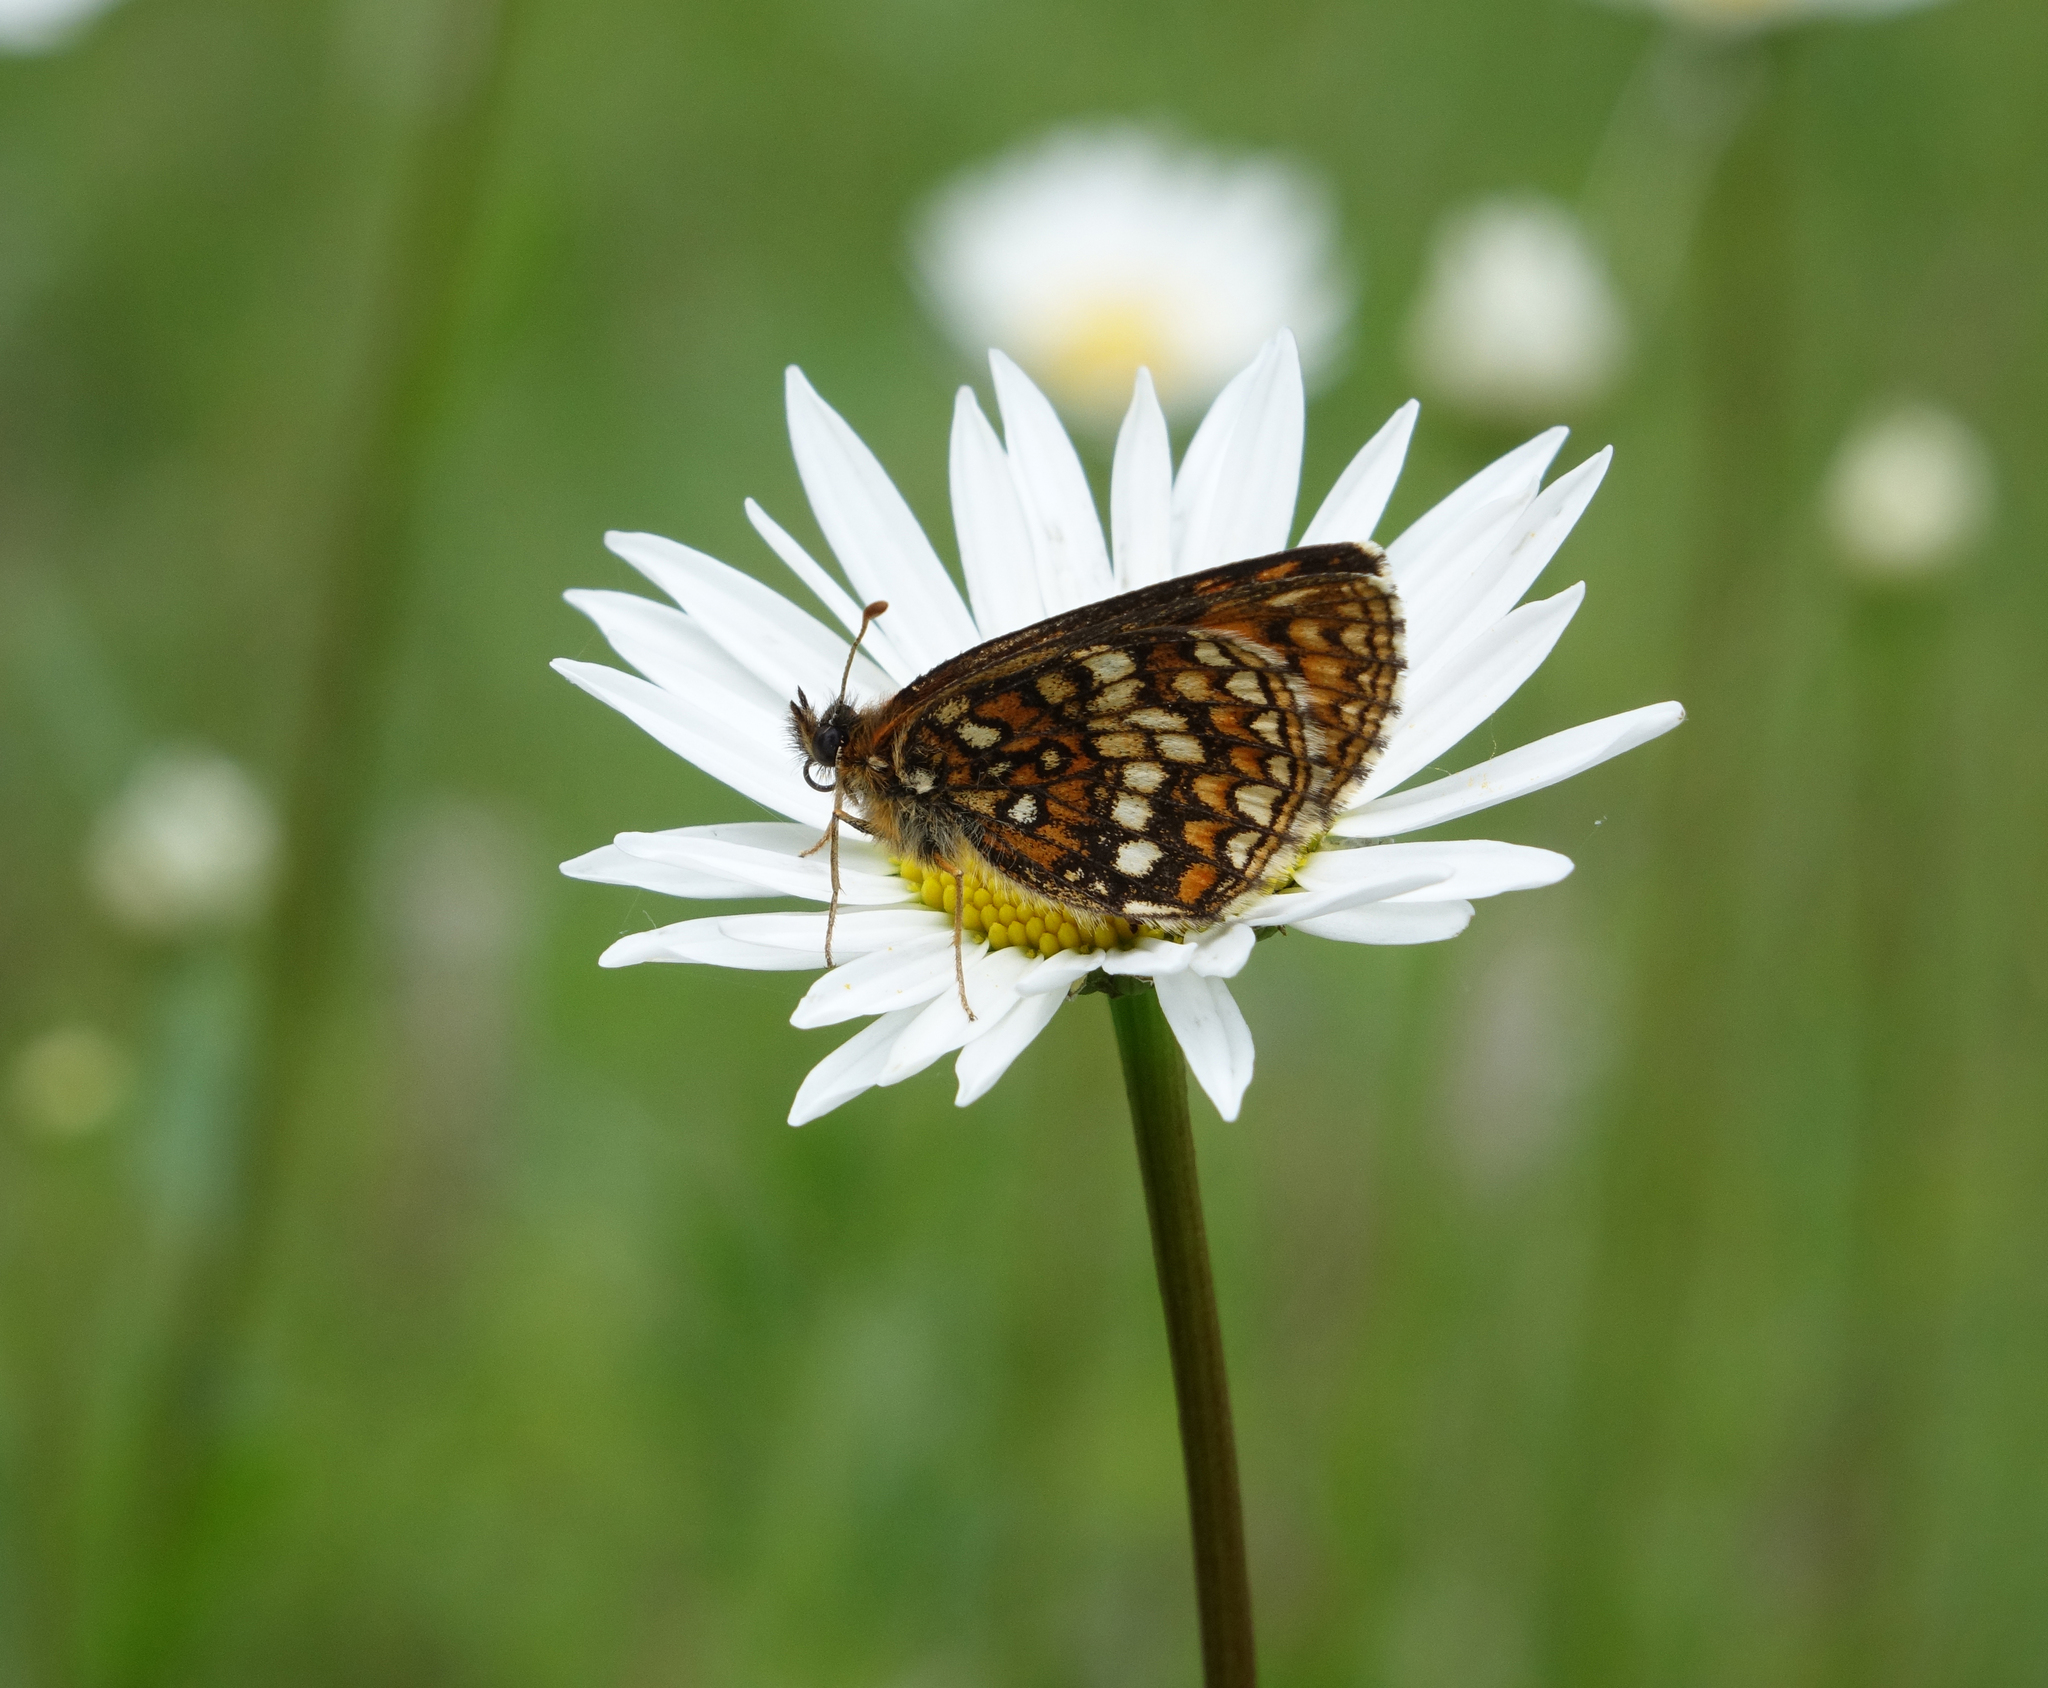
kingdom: Plantae
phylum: Tracheophyta
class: Magnoliopsida
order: Asterales
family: Asteraceae
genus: Leucanthemum
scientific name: Leucanthemum ircutianum
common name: Daisy
